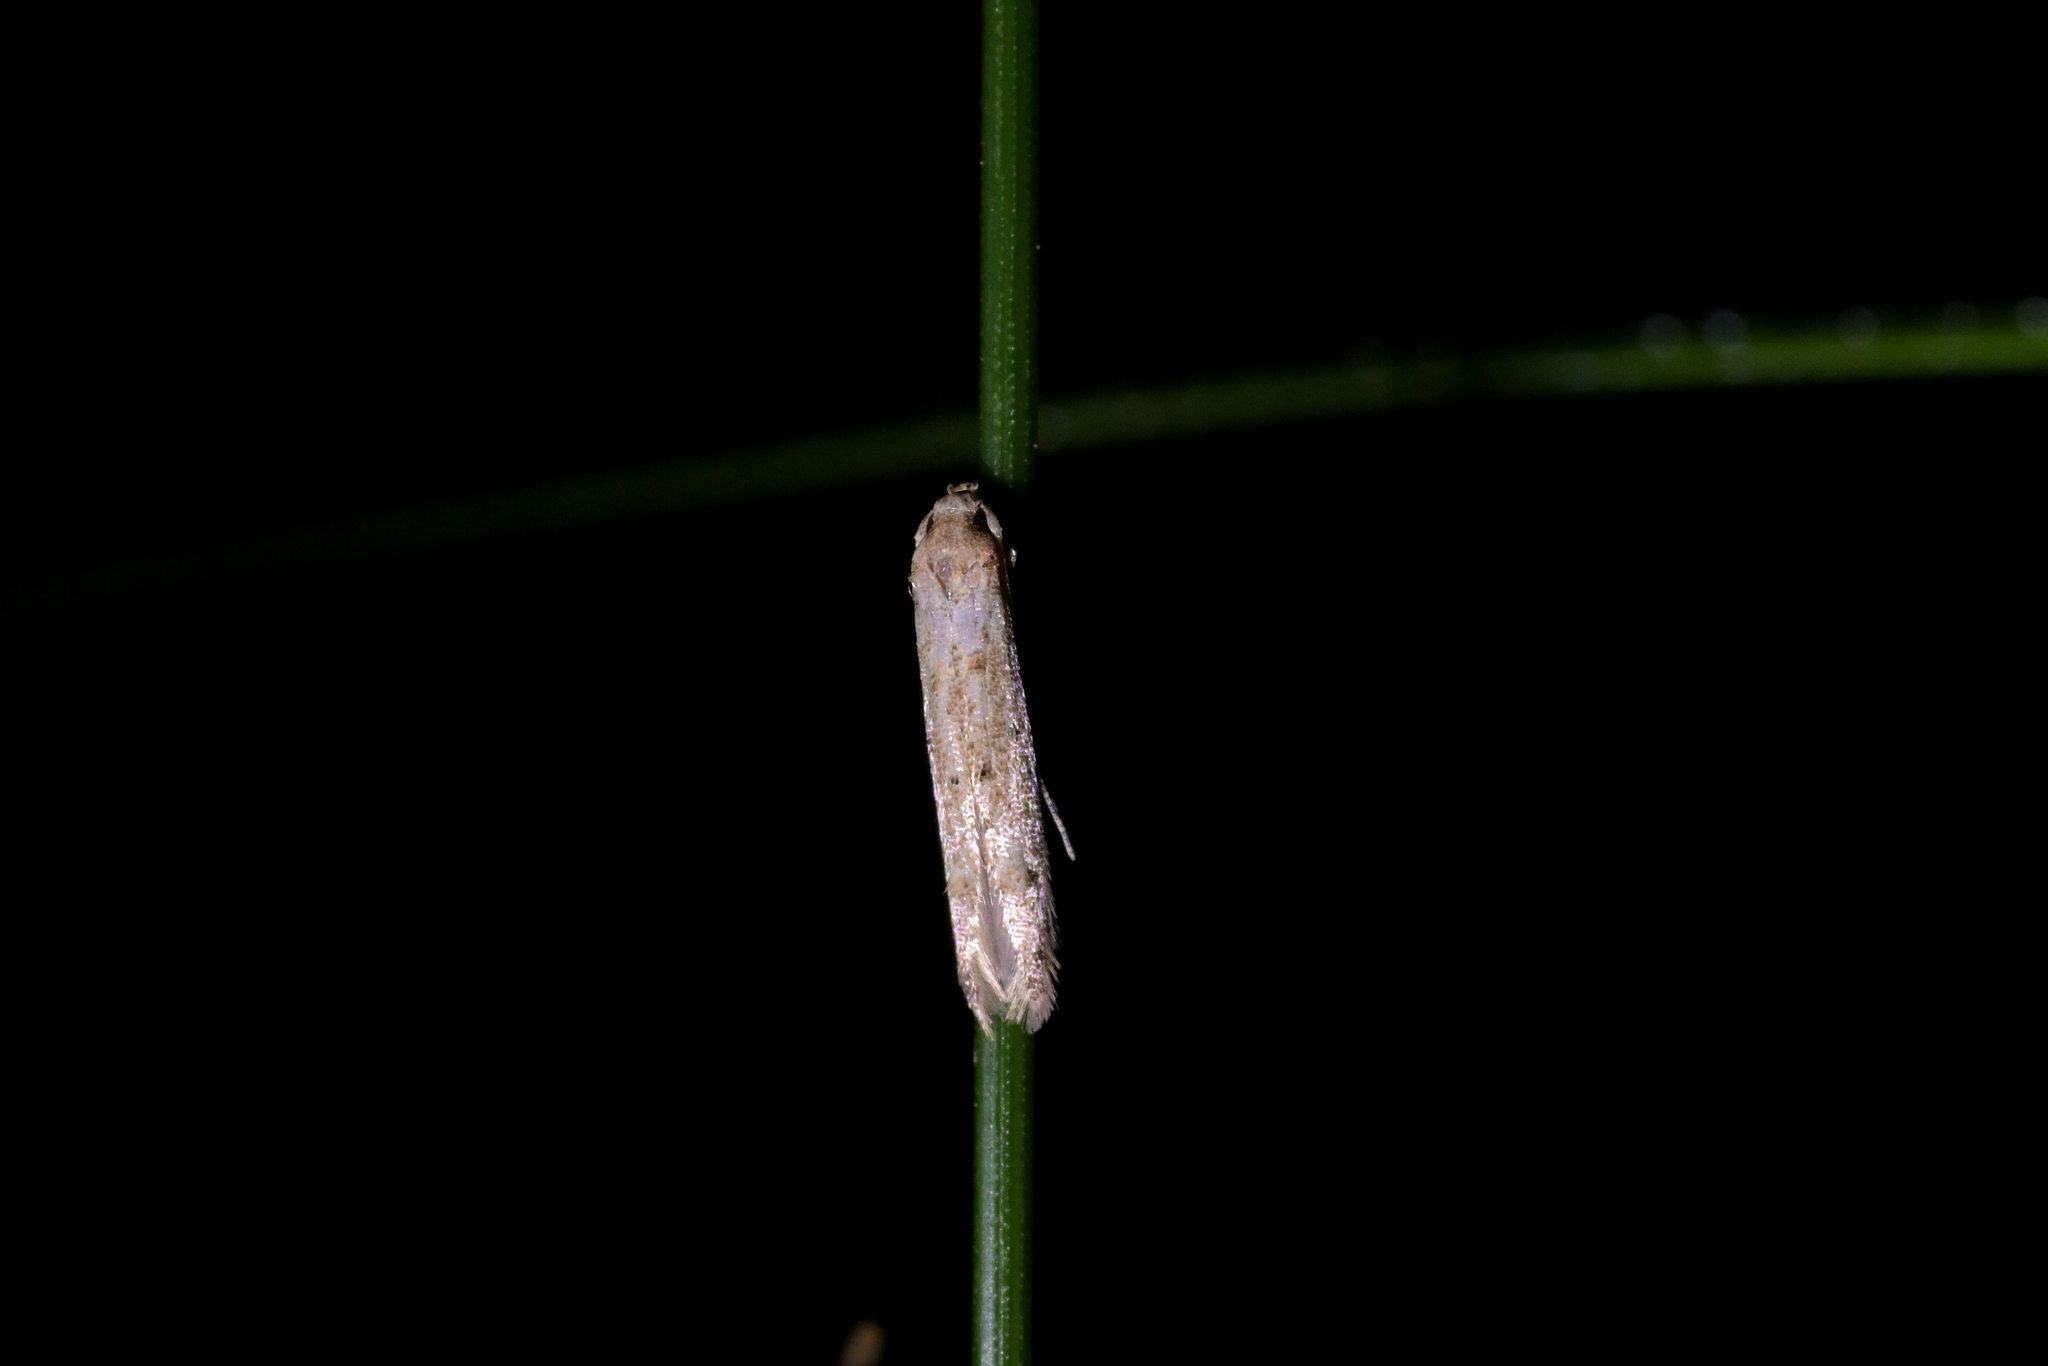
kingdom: Animalia
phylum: Arthropoda
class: Insecta
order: Lepidoptera
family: Elachistidae
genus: Microcolona
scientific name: Microcolona limodes
